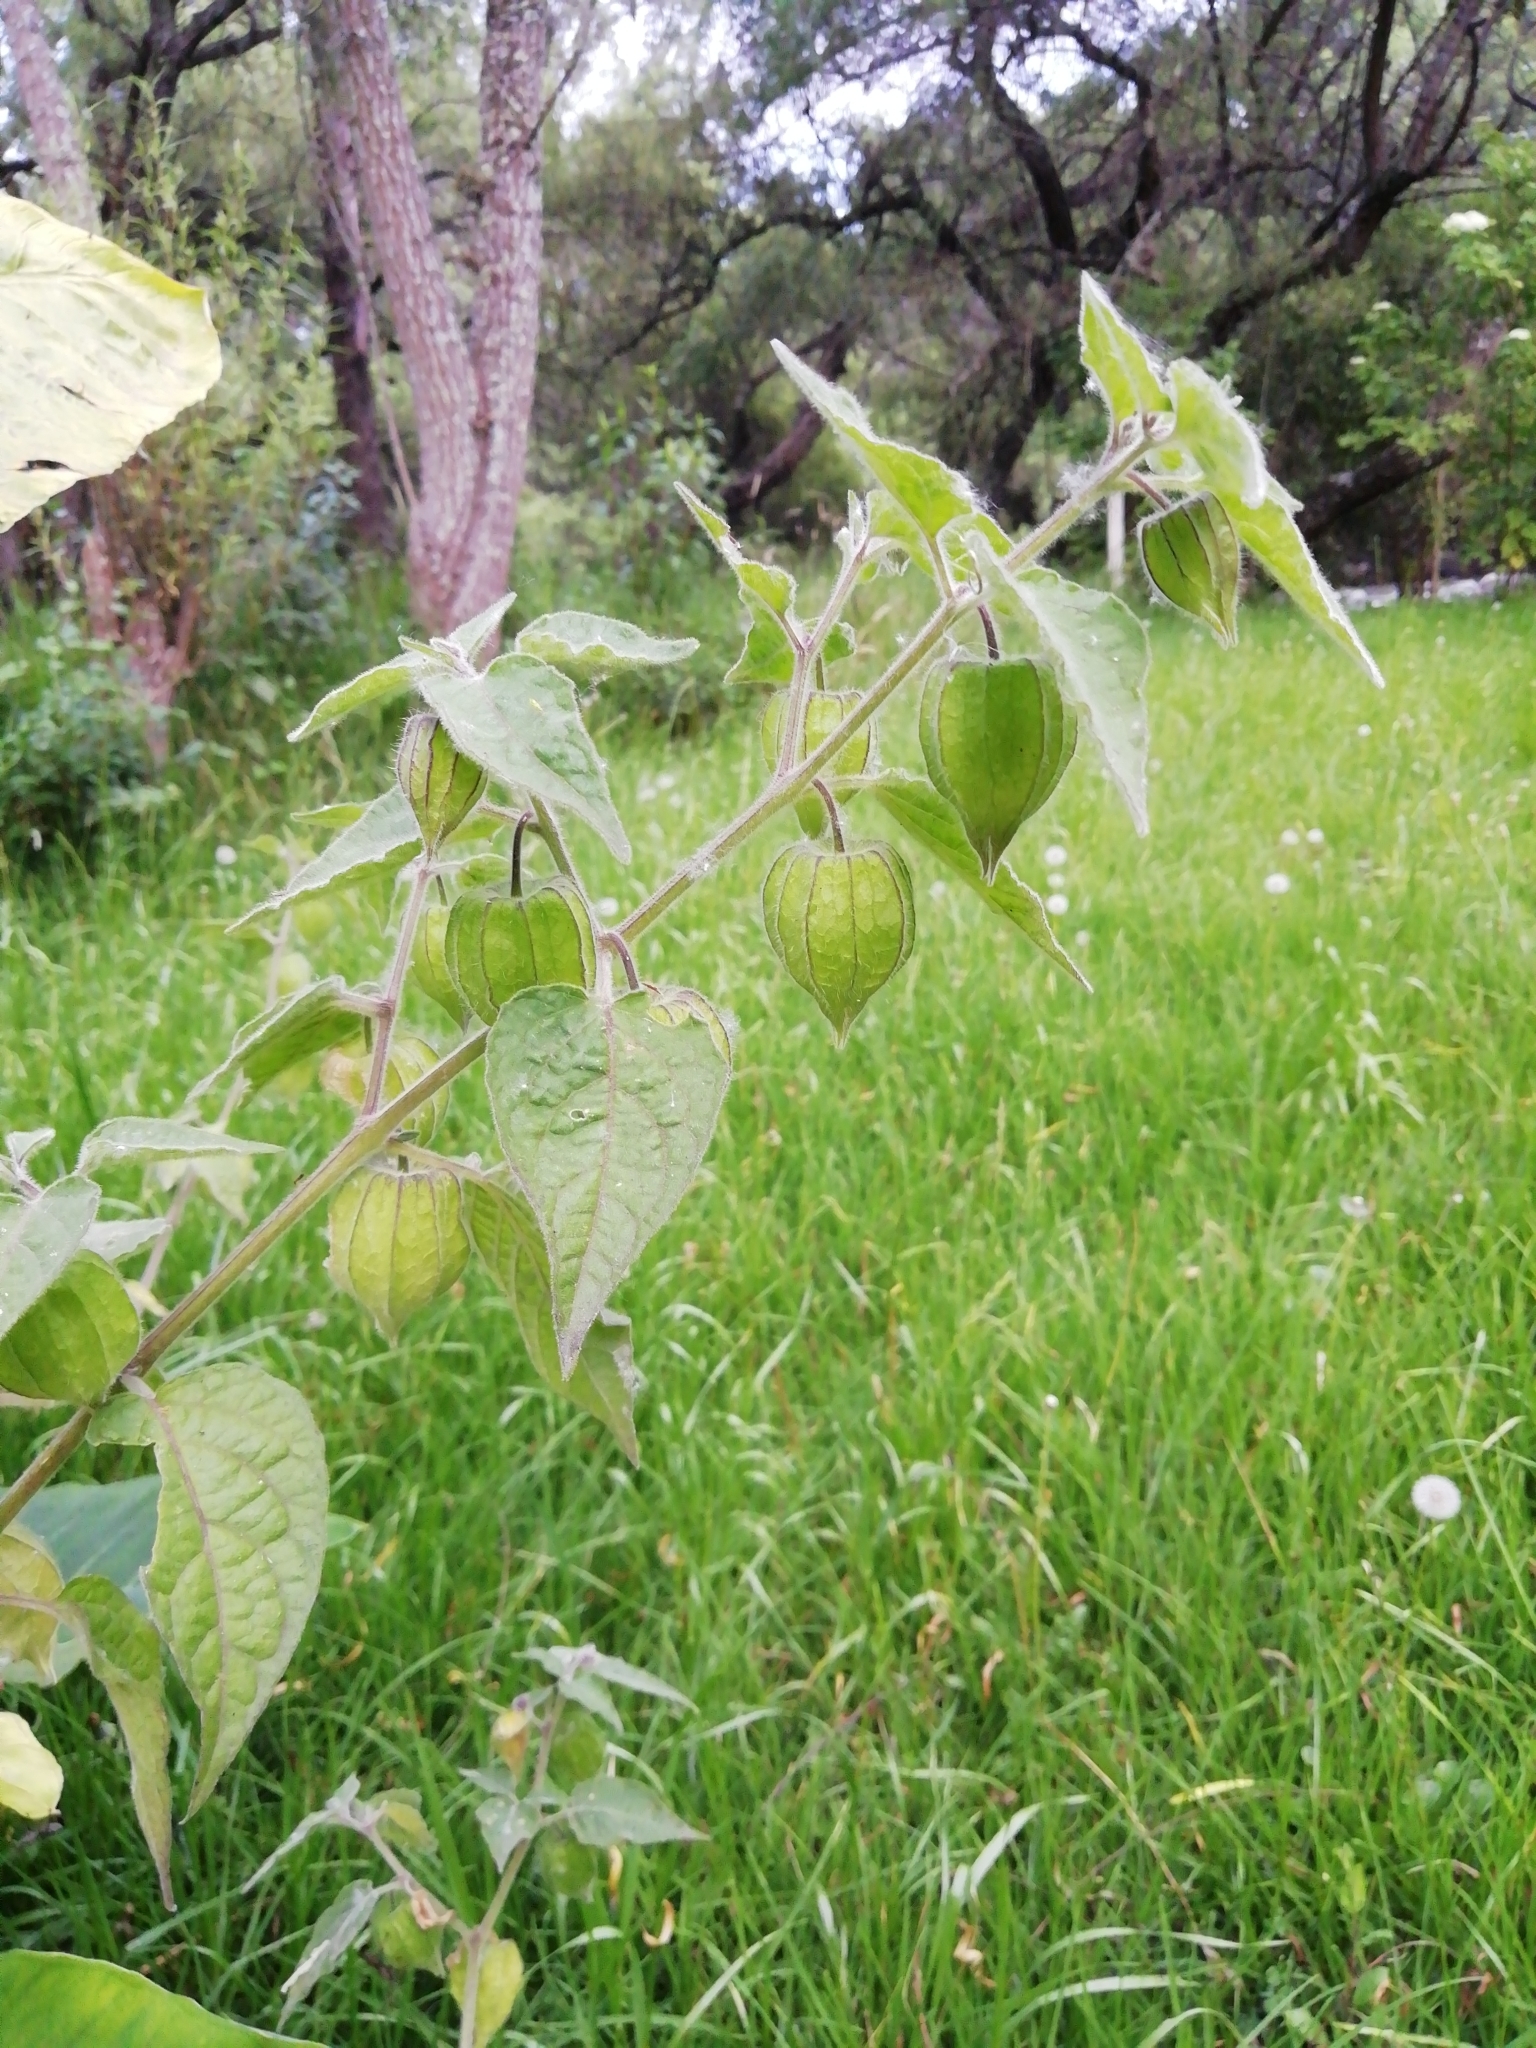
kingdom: Plantae
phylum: Tracheophyta
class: Magnoliopsida
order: Solanales
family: Solanaceae
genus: Physalis
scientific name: Physalis peruviana
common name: Cape-gooseberry
